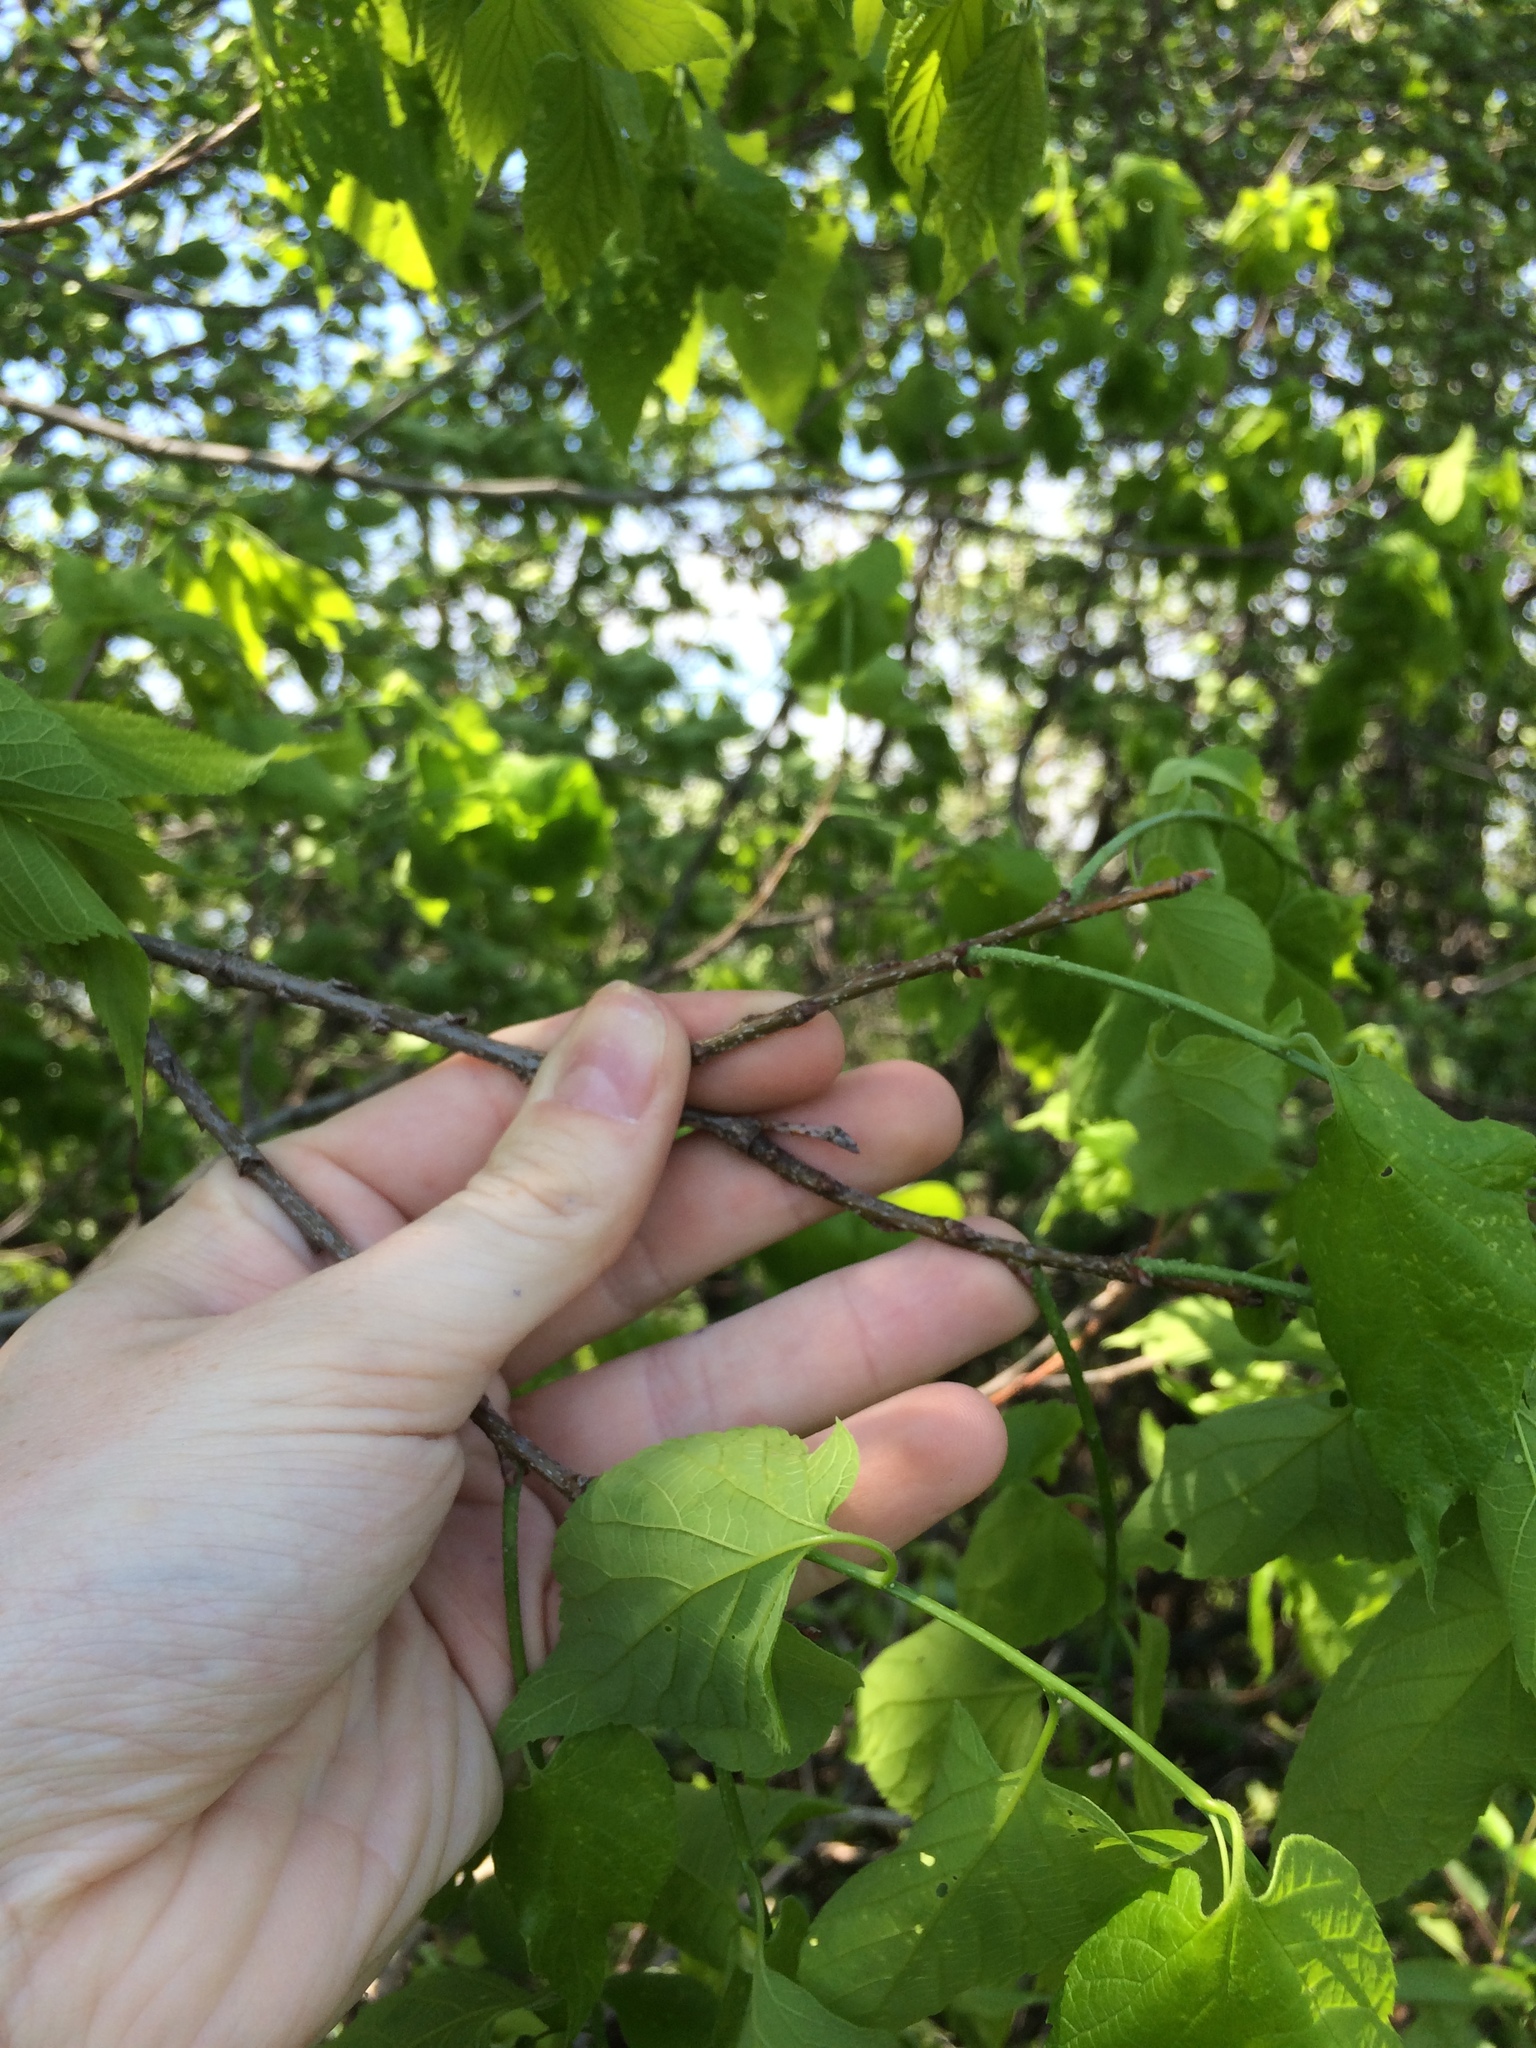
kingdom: Plantae
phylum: Tracheophyta
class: Magnoliopsida
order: Rosales
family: Cannabaceae
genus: Celtis
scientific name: Celtis occidentalis
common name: Common hackberry
